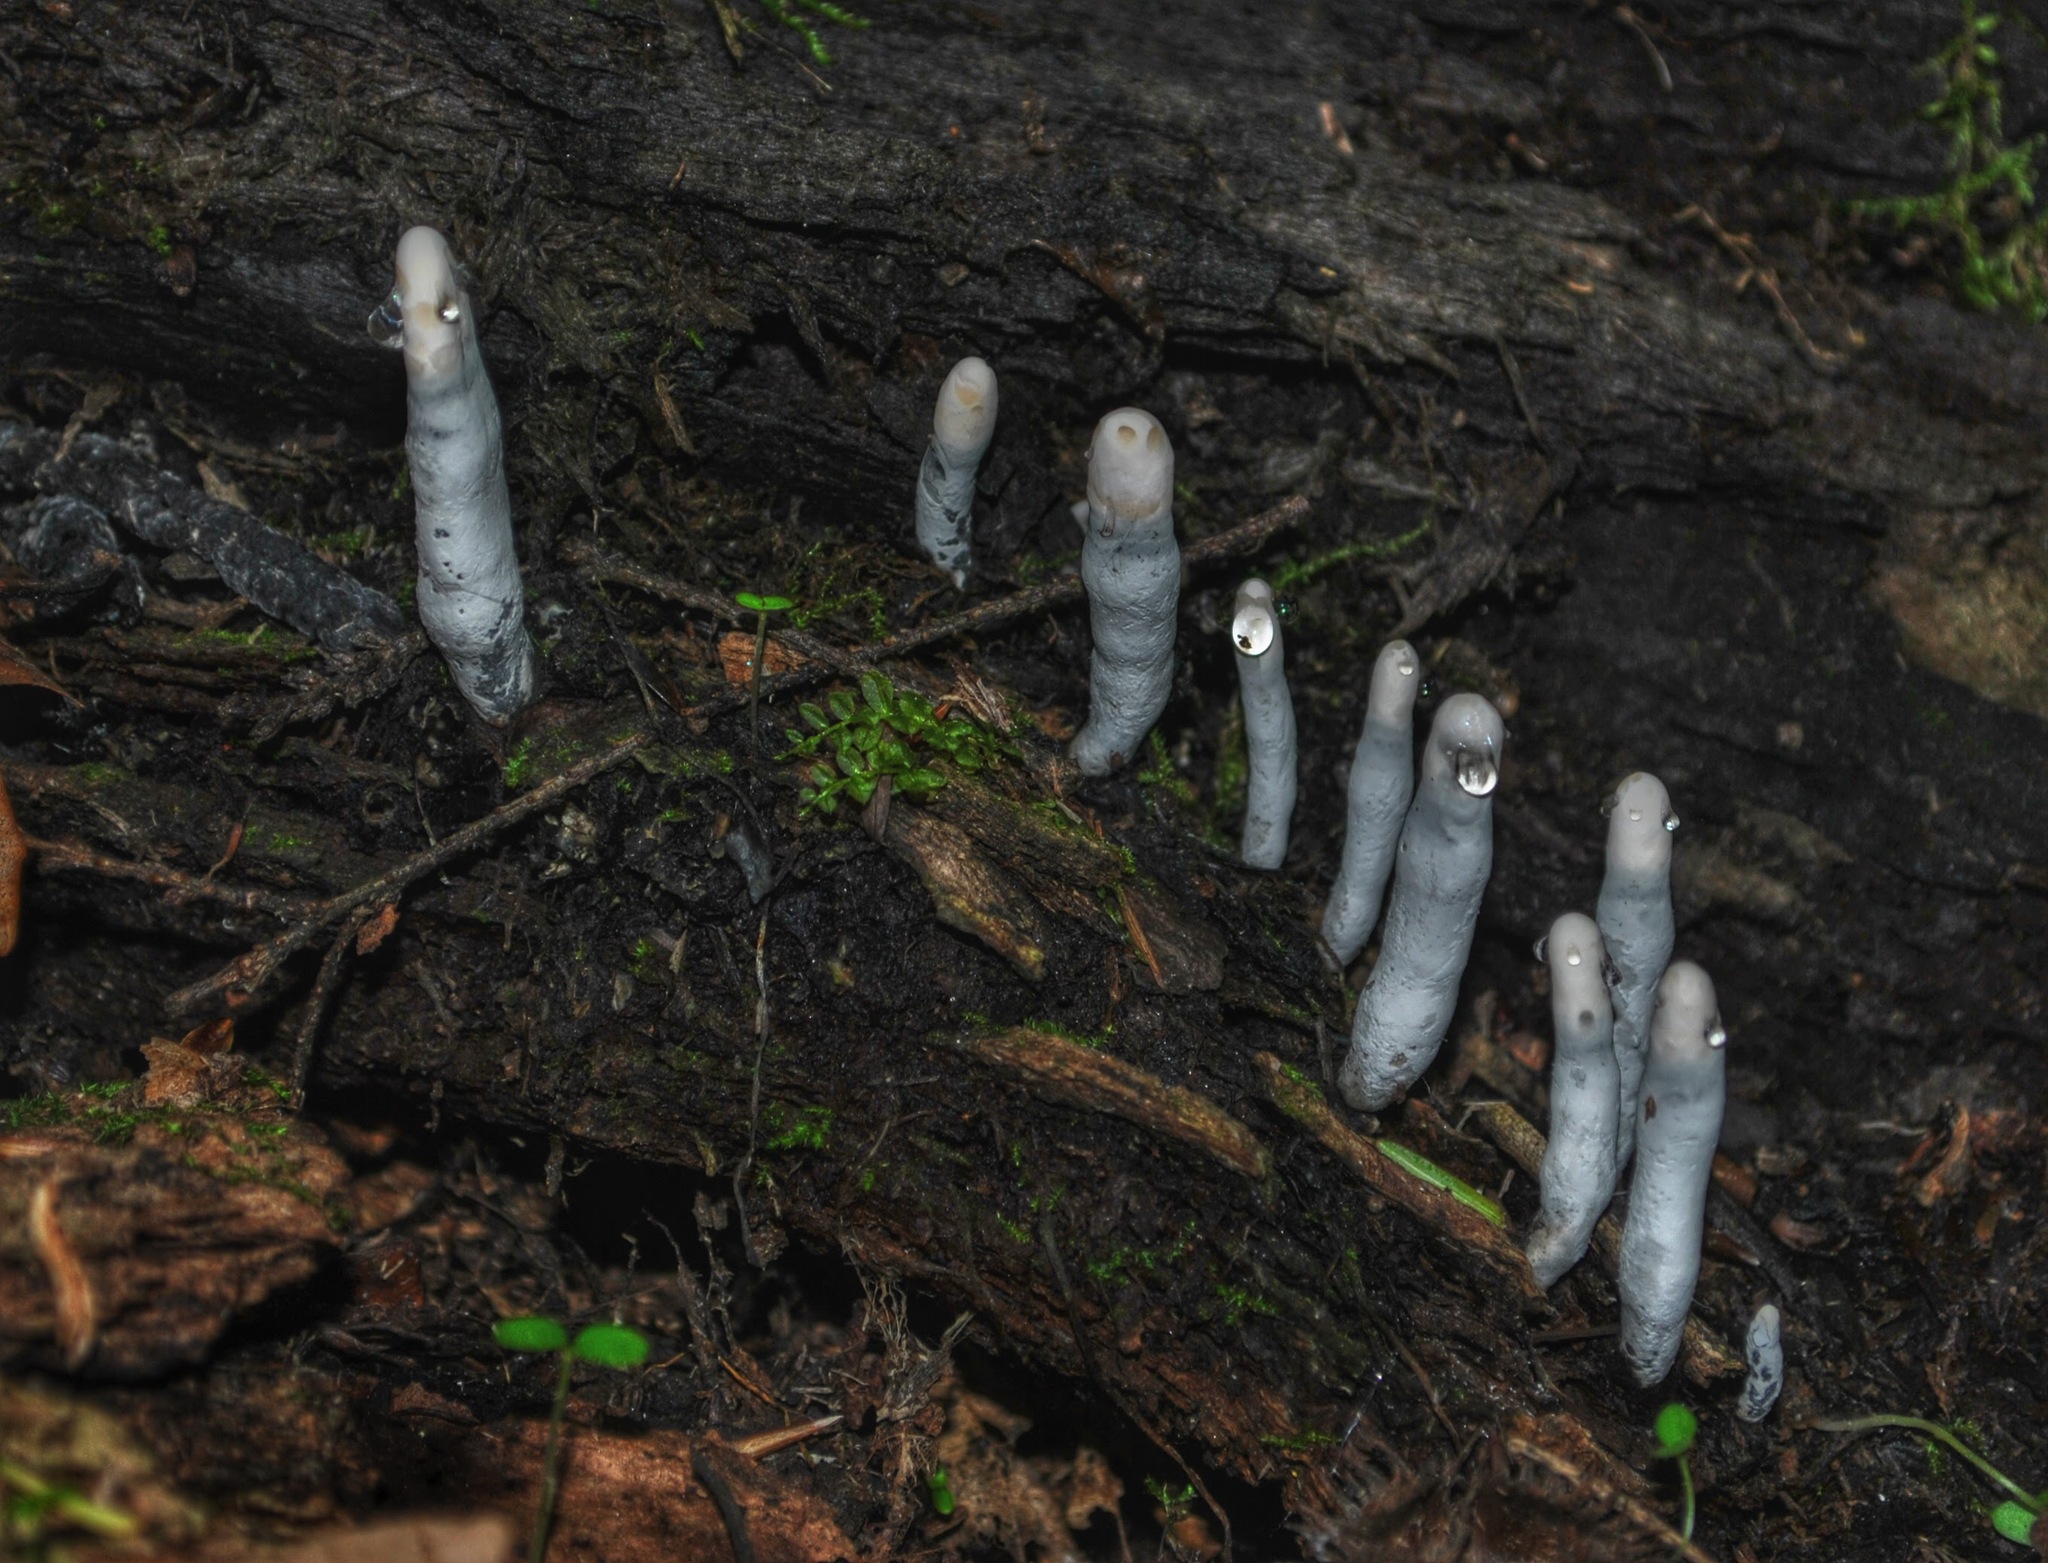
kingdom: Fungi
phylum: Ascomycota
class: Sordariomycetes
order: Xylariales
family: Xylariaceae
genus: Xylaria
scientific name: Xylaria polymorpha
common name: Dead man's fingers
